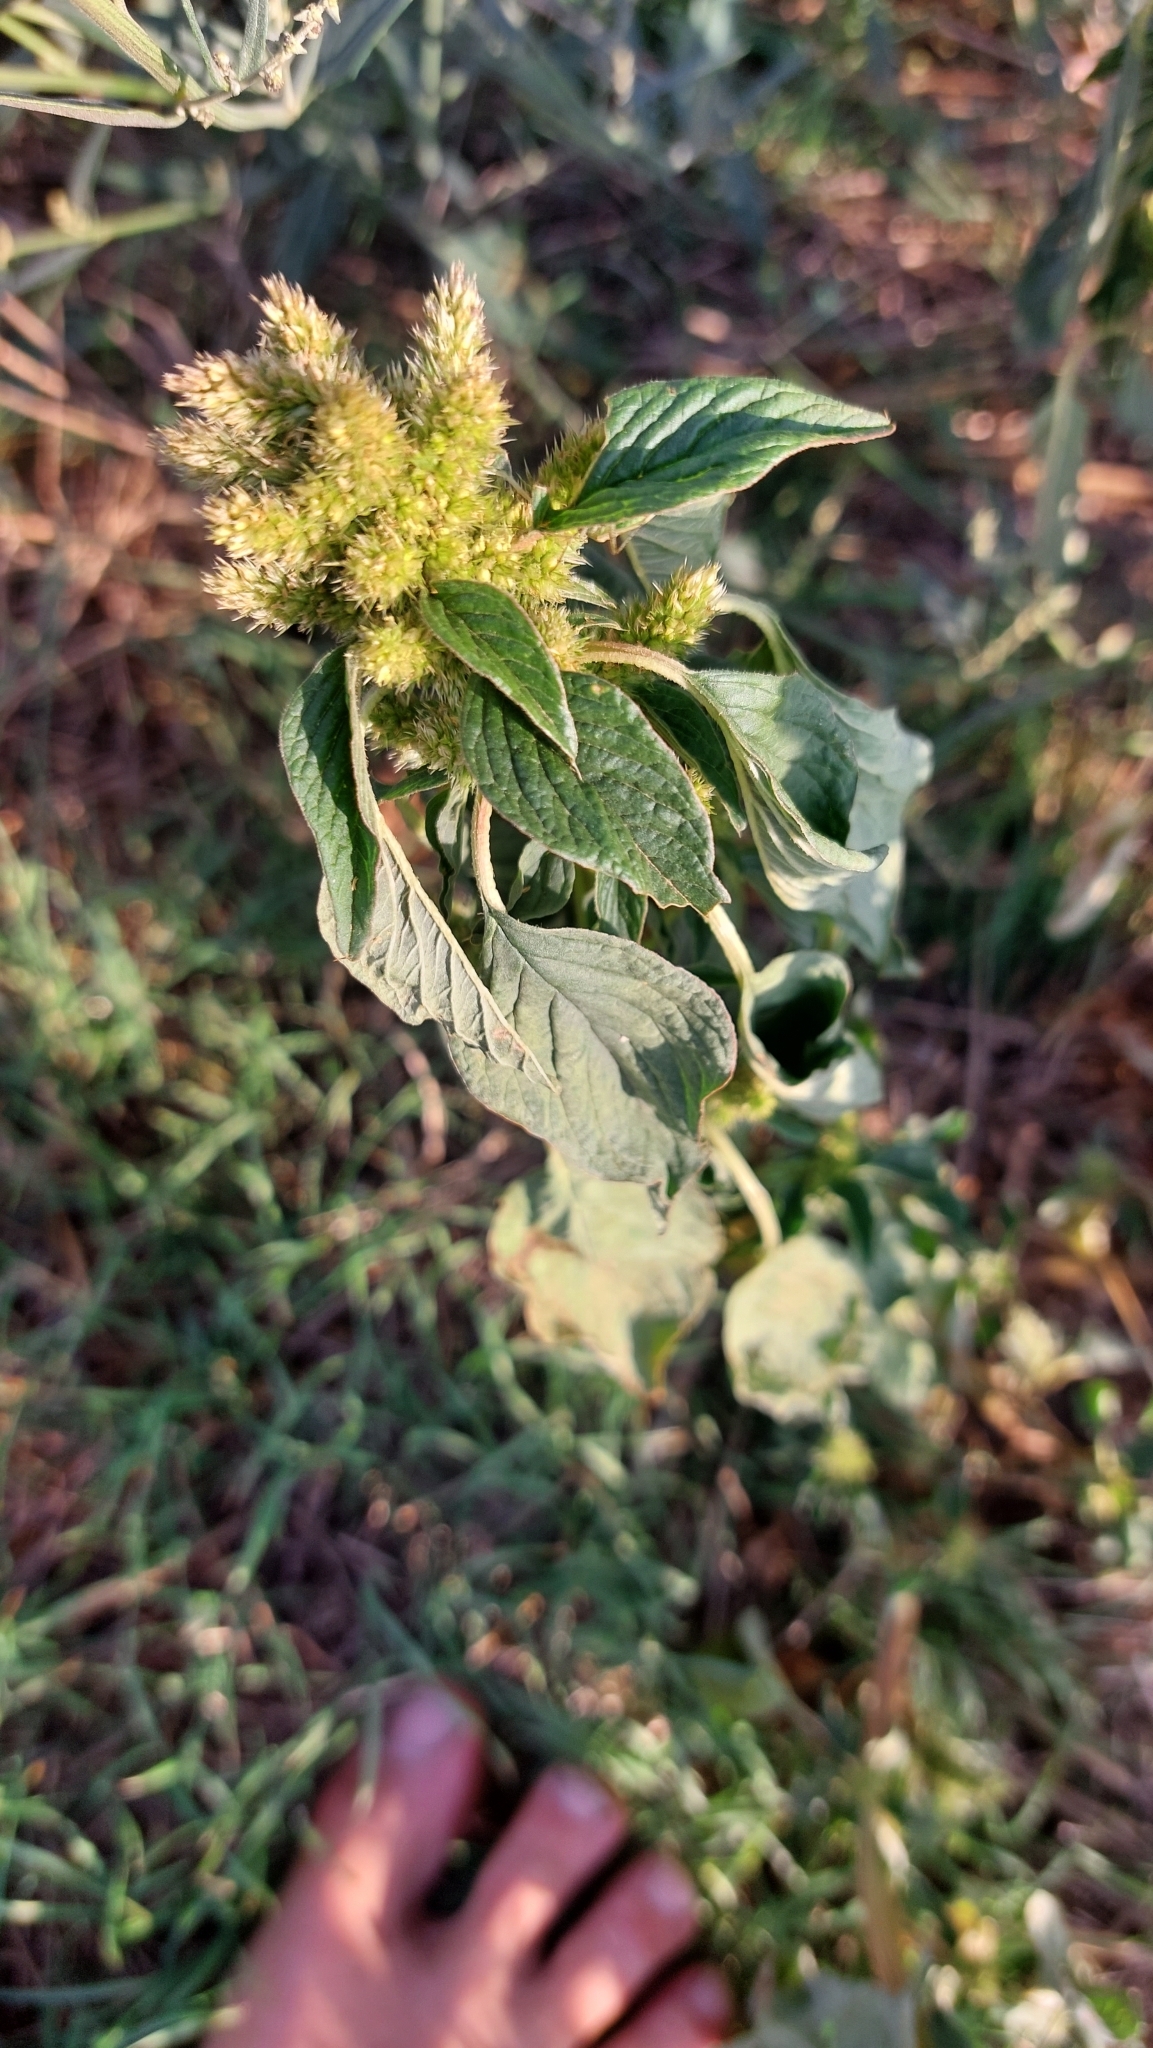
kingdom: Plantae
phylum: Tracheophyta
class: Magnoliopsida
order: Caryophyllales
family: Amaranthaceae
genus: Amaranthus
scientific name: Amaranthus retroflexus
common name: Redroot amaranth
